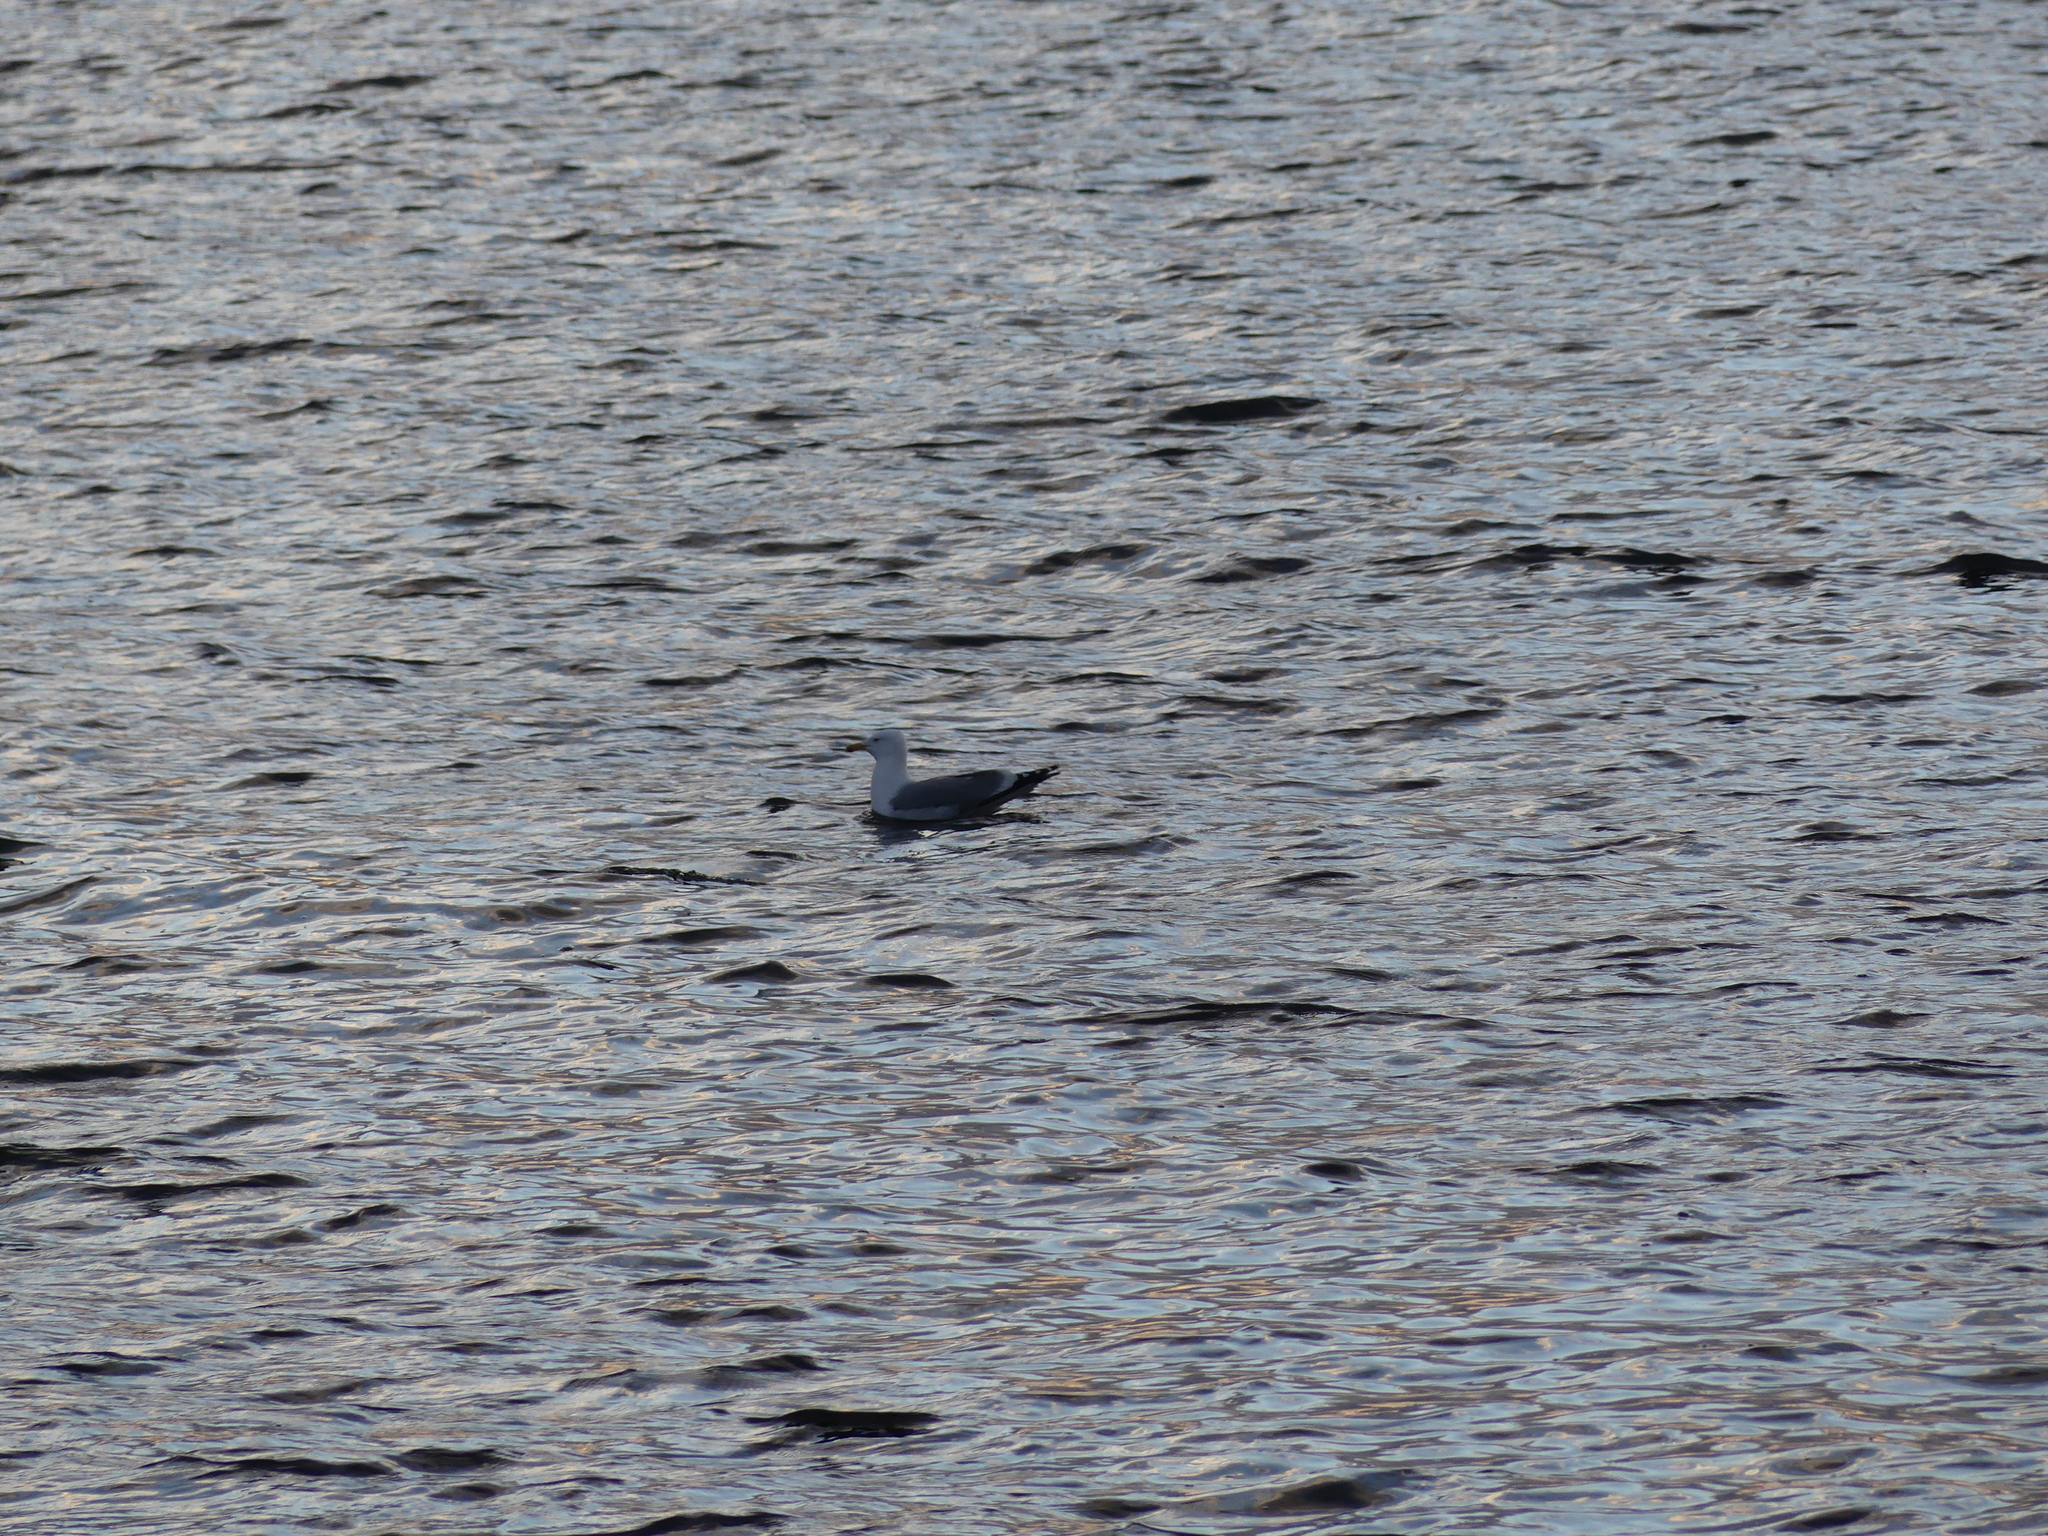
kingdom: Animalia
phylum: Chordata
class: Aves
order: Charadriiformes
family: Laridae
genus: Larus
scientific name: Larus argentatus
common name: Herring gull
